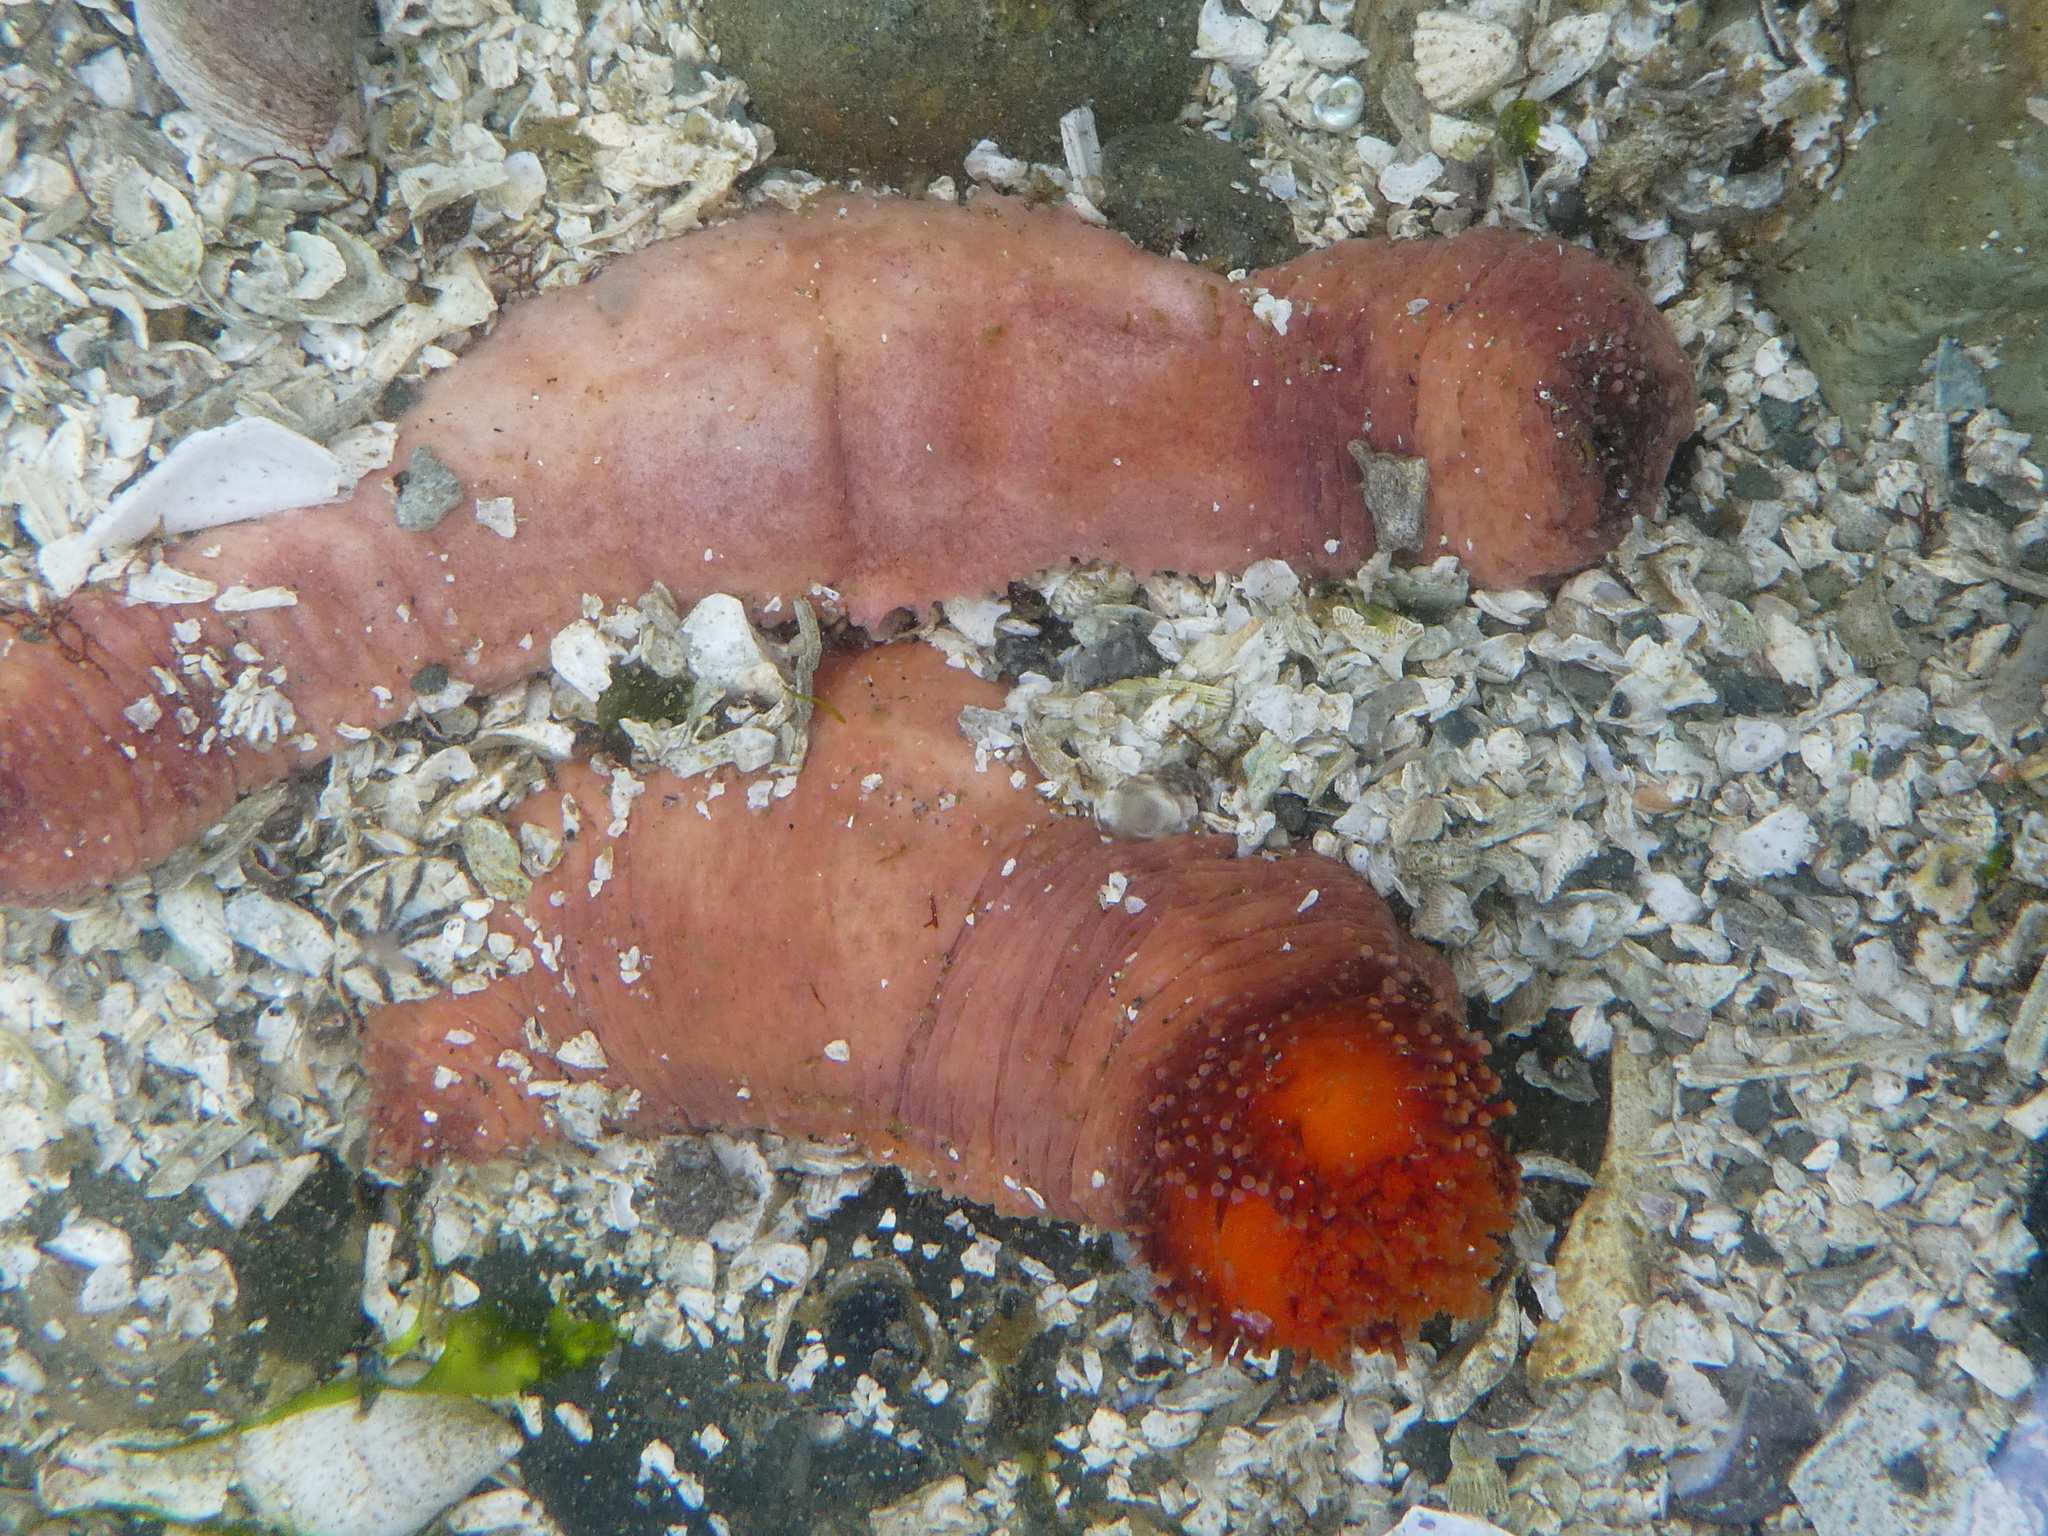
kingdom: Animalia
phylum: Echinodermata
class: Holothuroidea
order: Dendrochirotida
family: Cucumariidae
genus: Cucumaria
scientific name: Cucumaria miniata
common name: Orange sea cucumber
